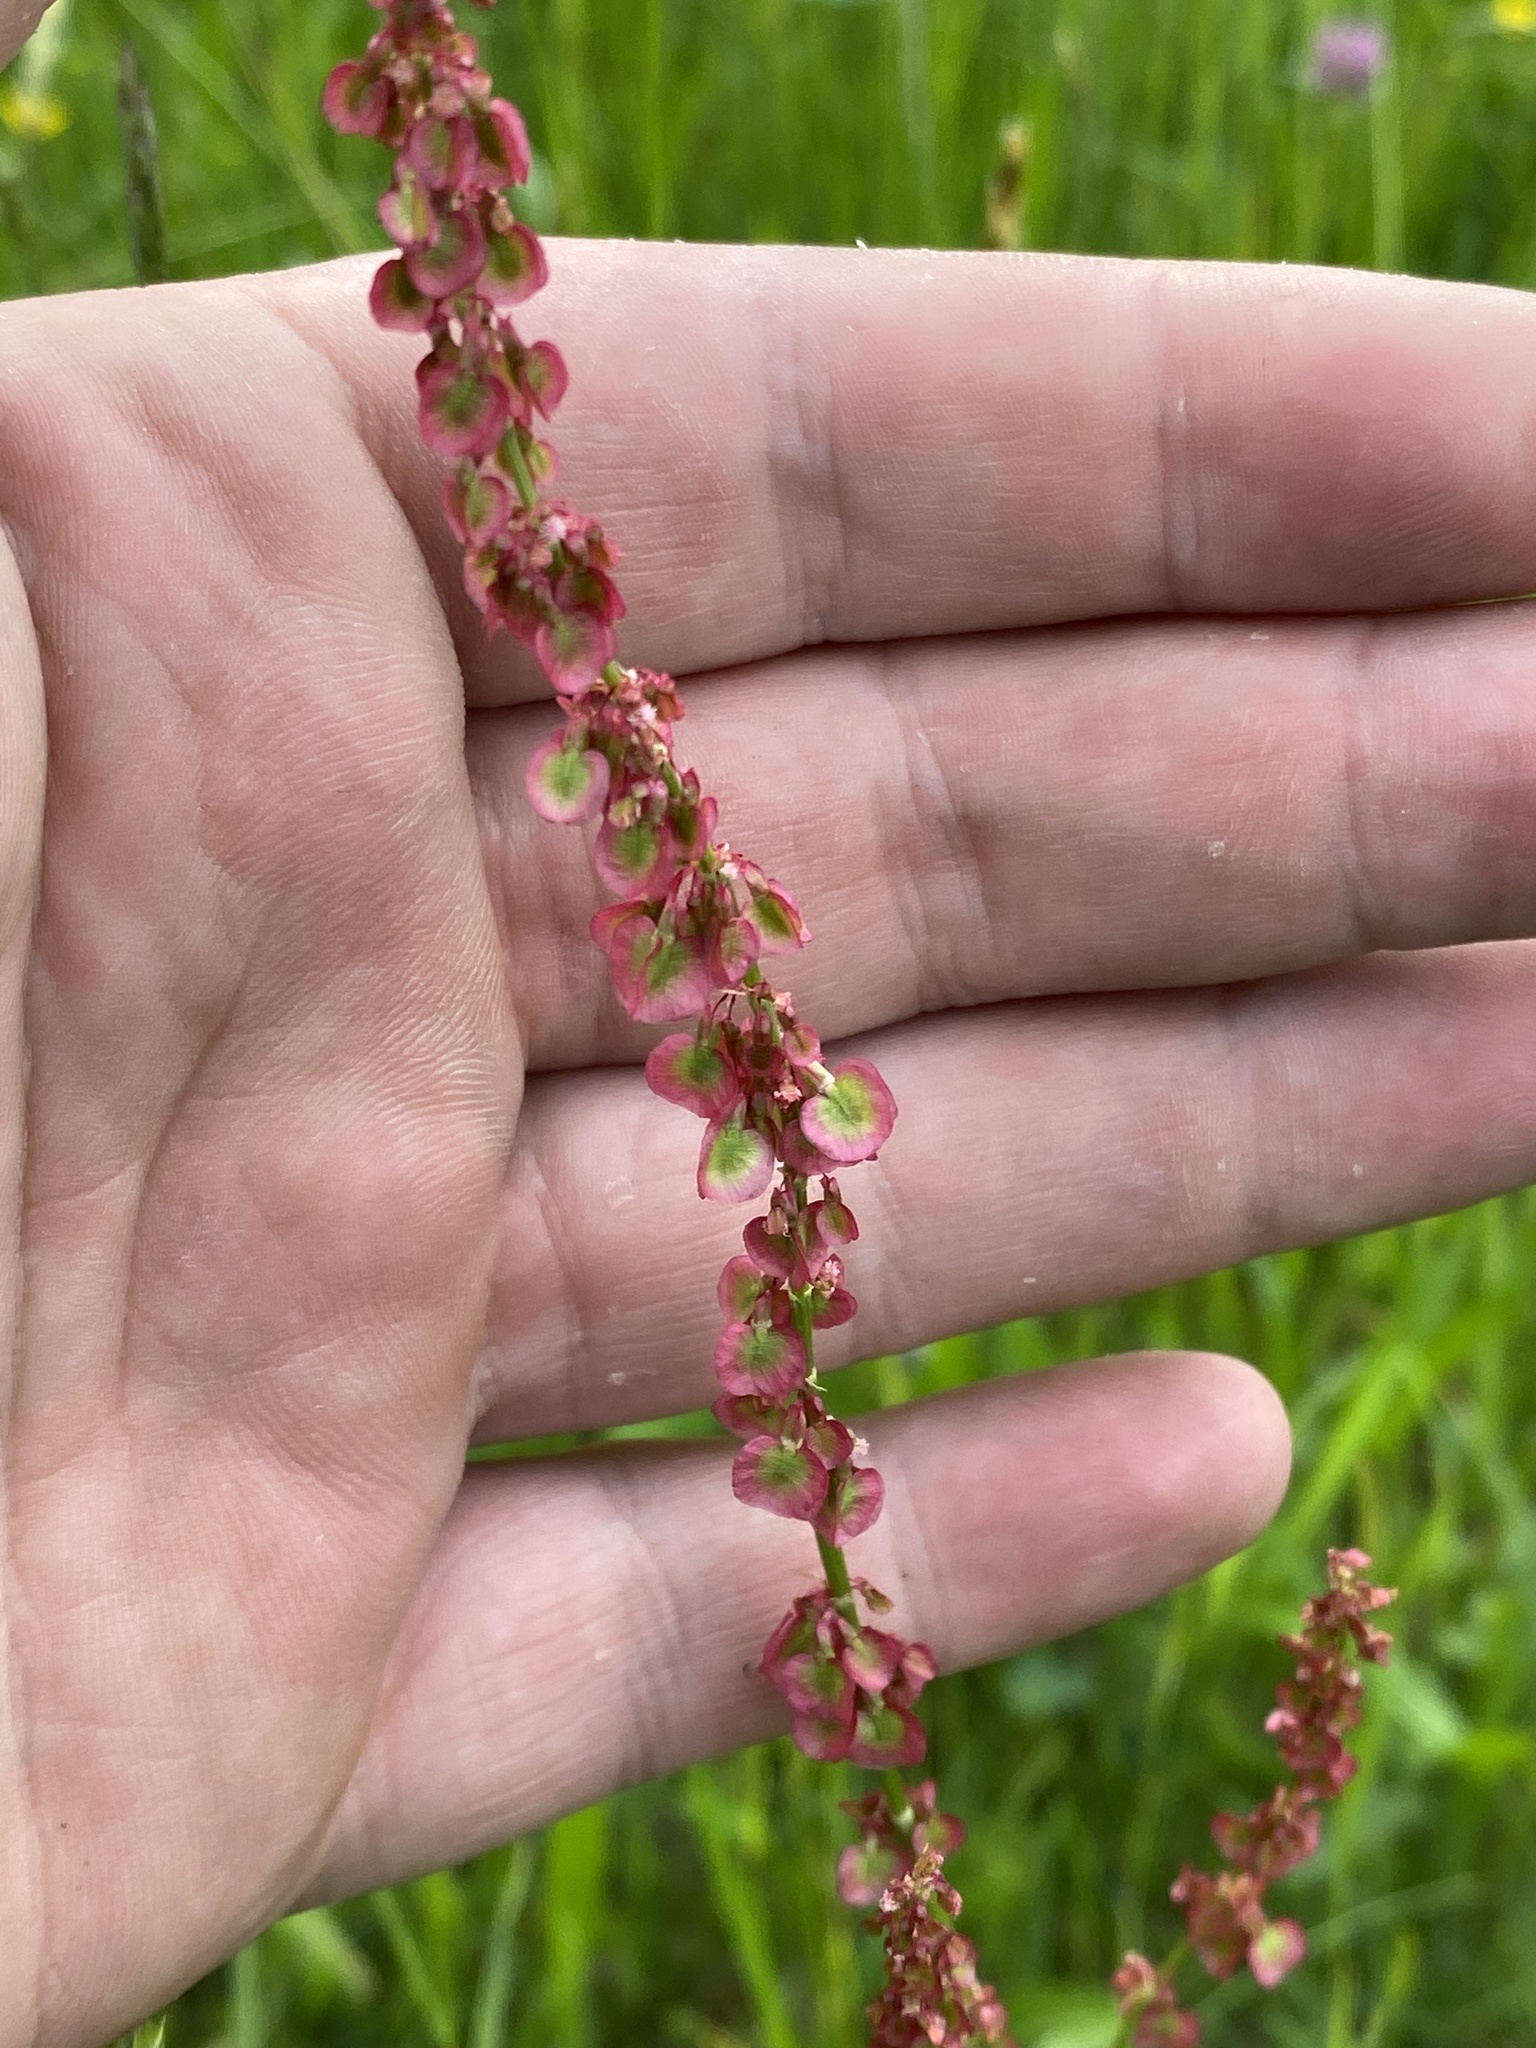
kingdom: Plantae
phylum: Tracheophyta
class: Magnoliopsida
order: Caryophyllales
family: Polygonaceae
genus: Rumex
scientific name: Rumex acetosa
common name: Garden sorrel
